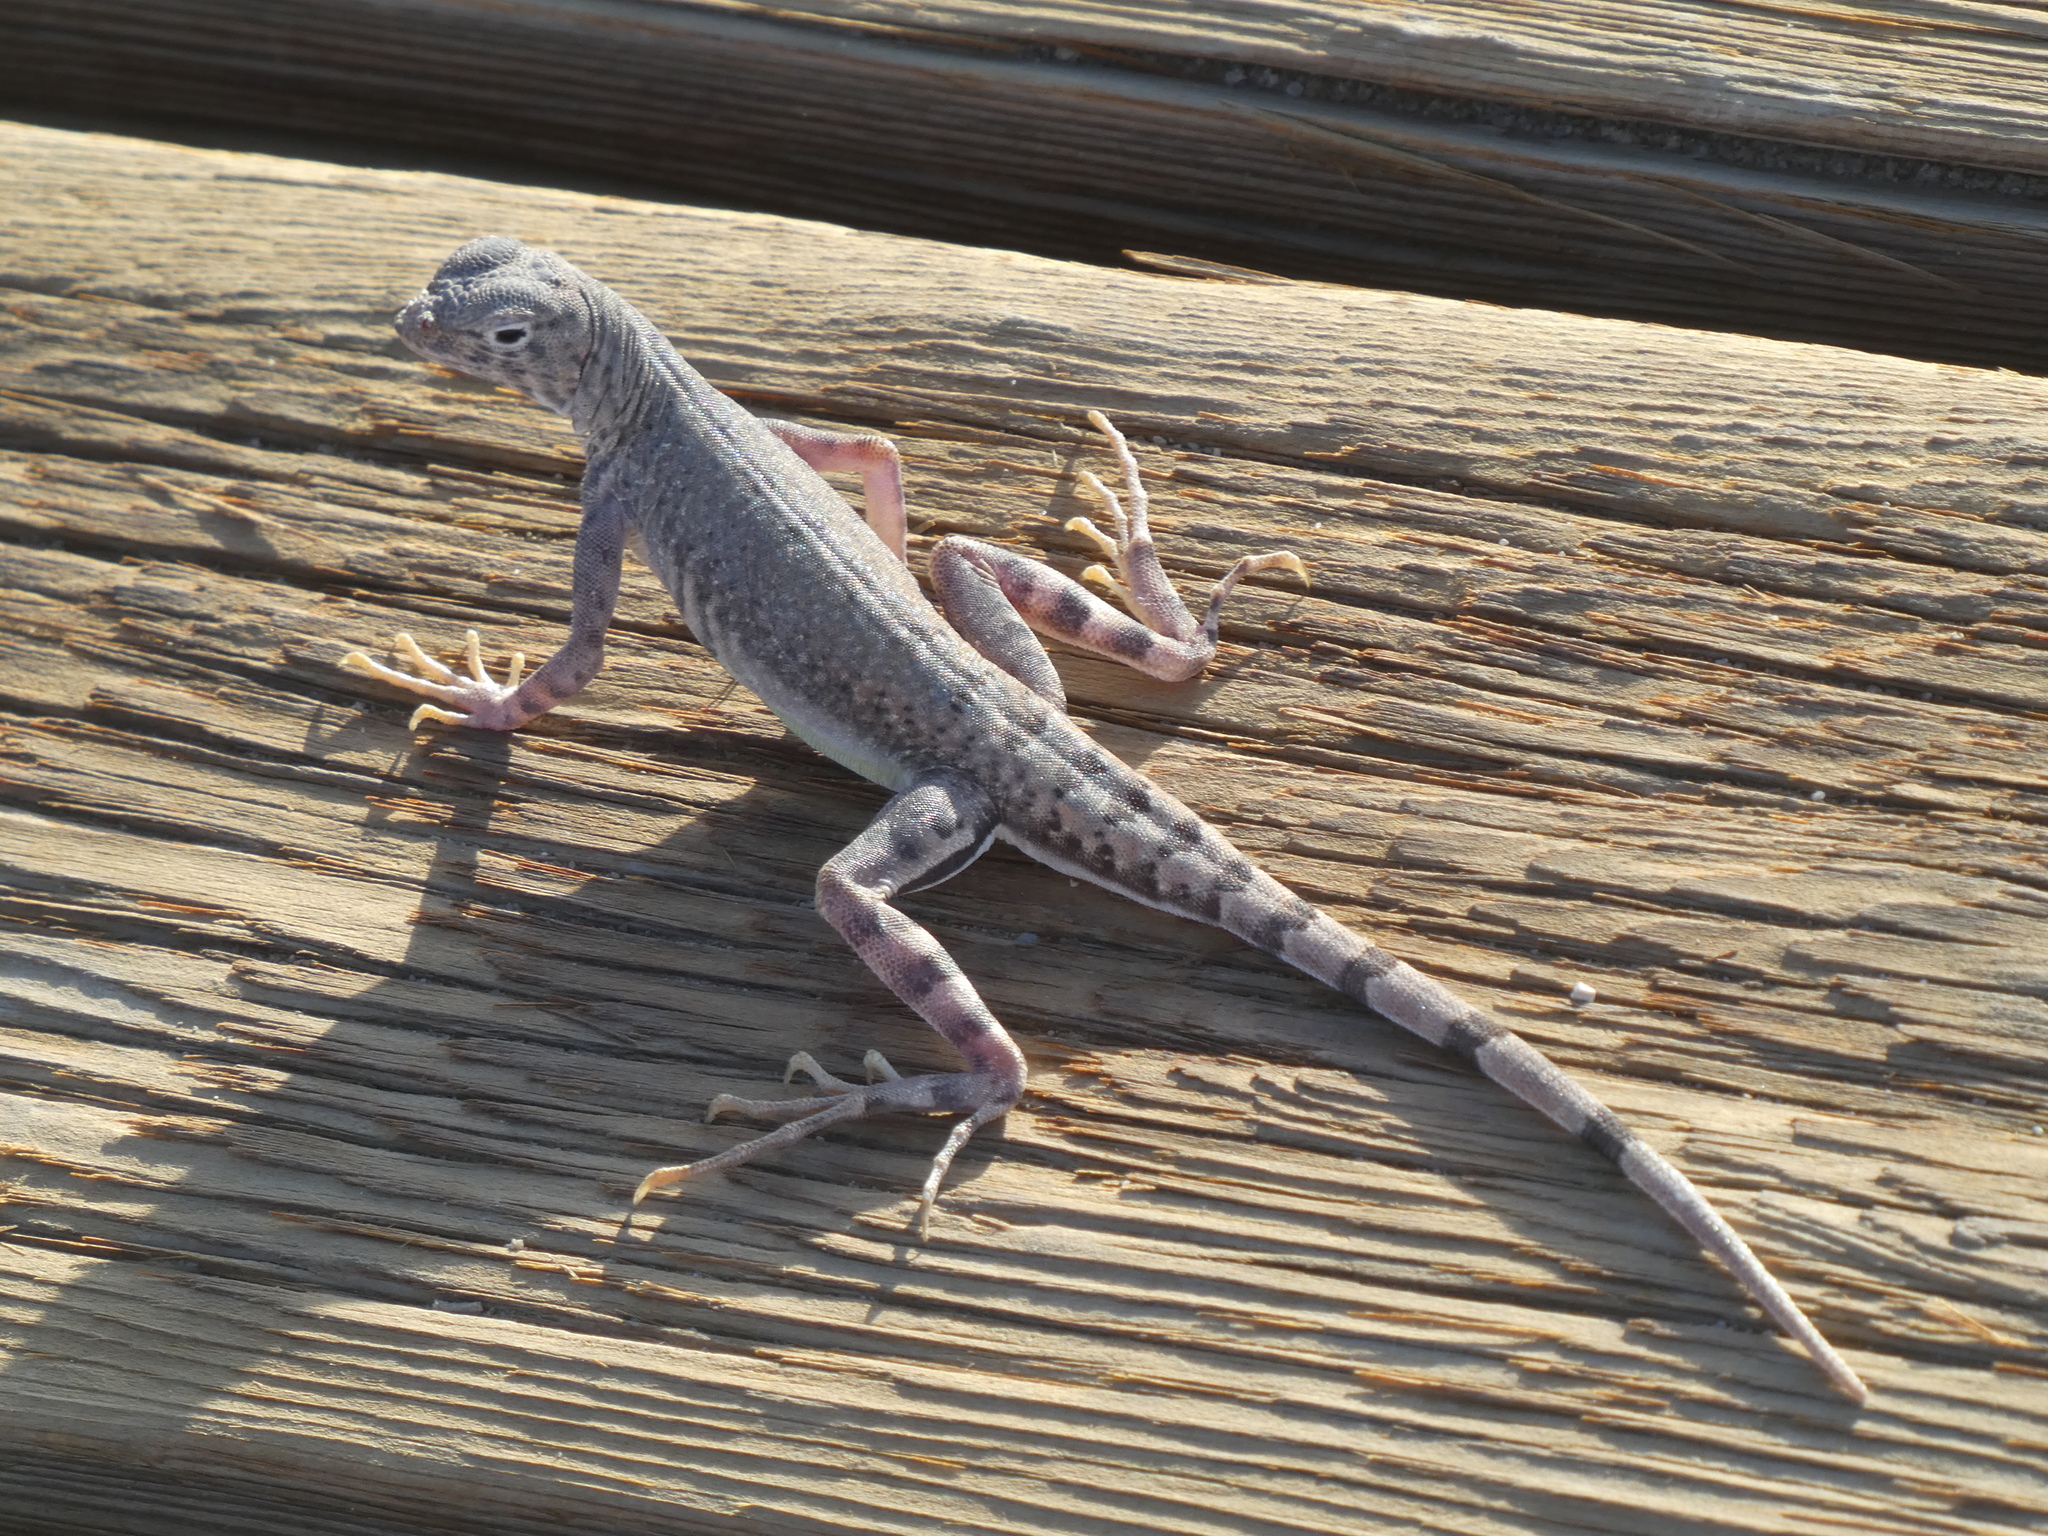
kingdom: Animalia
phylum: Chordata
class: Squamata
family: Phrynosomatidae
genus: Callisaurus
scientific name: Callisaurus draconoides
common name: Zebra-tailed lizard
